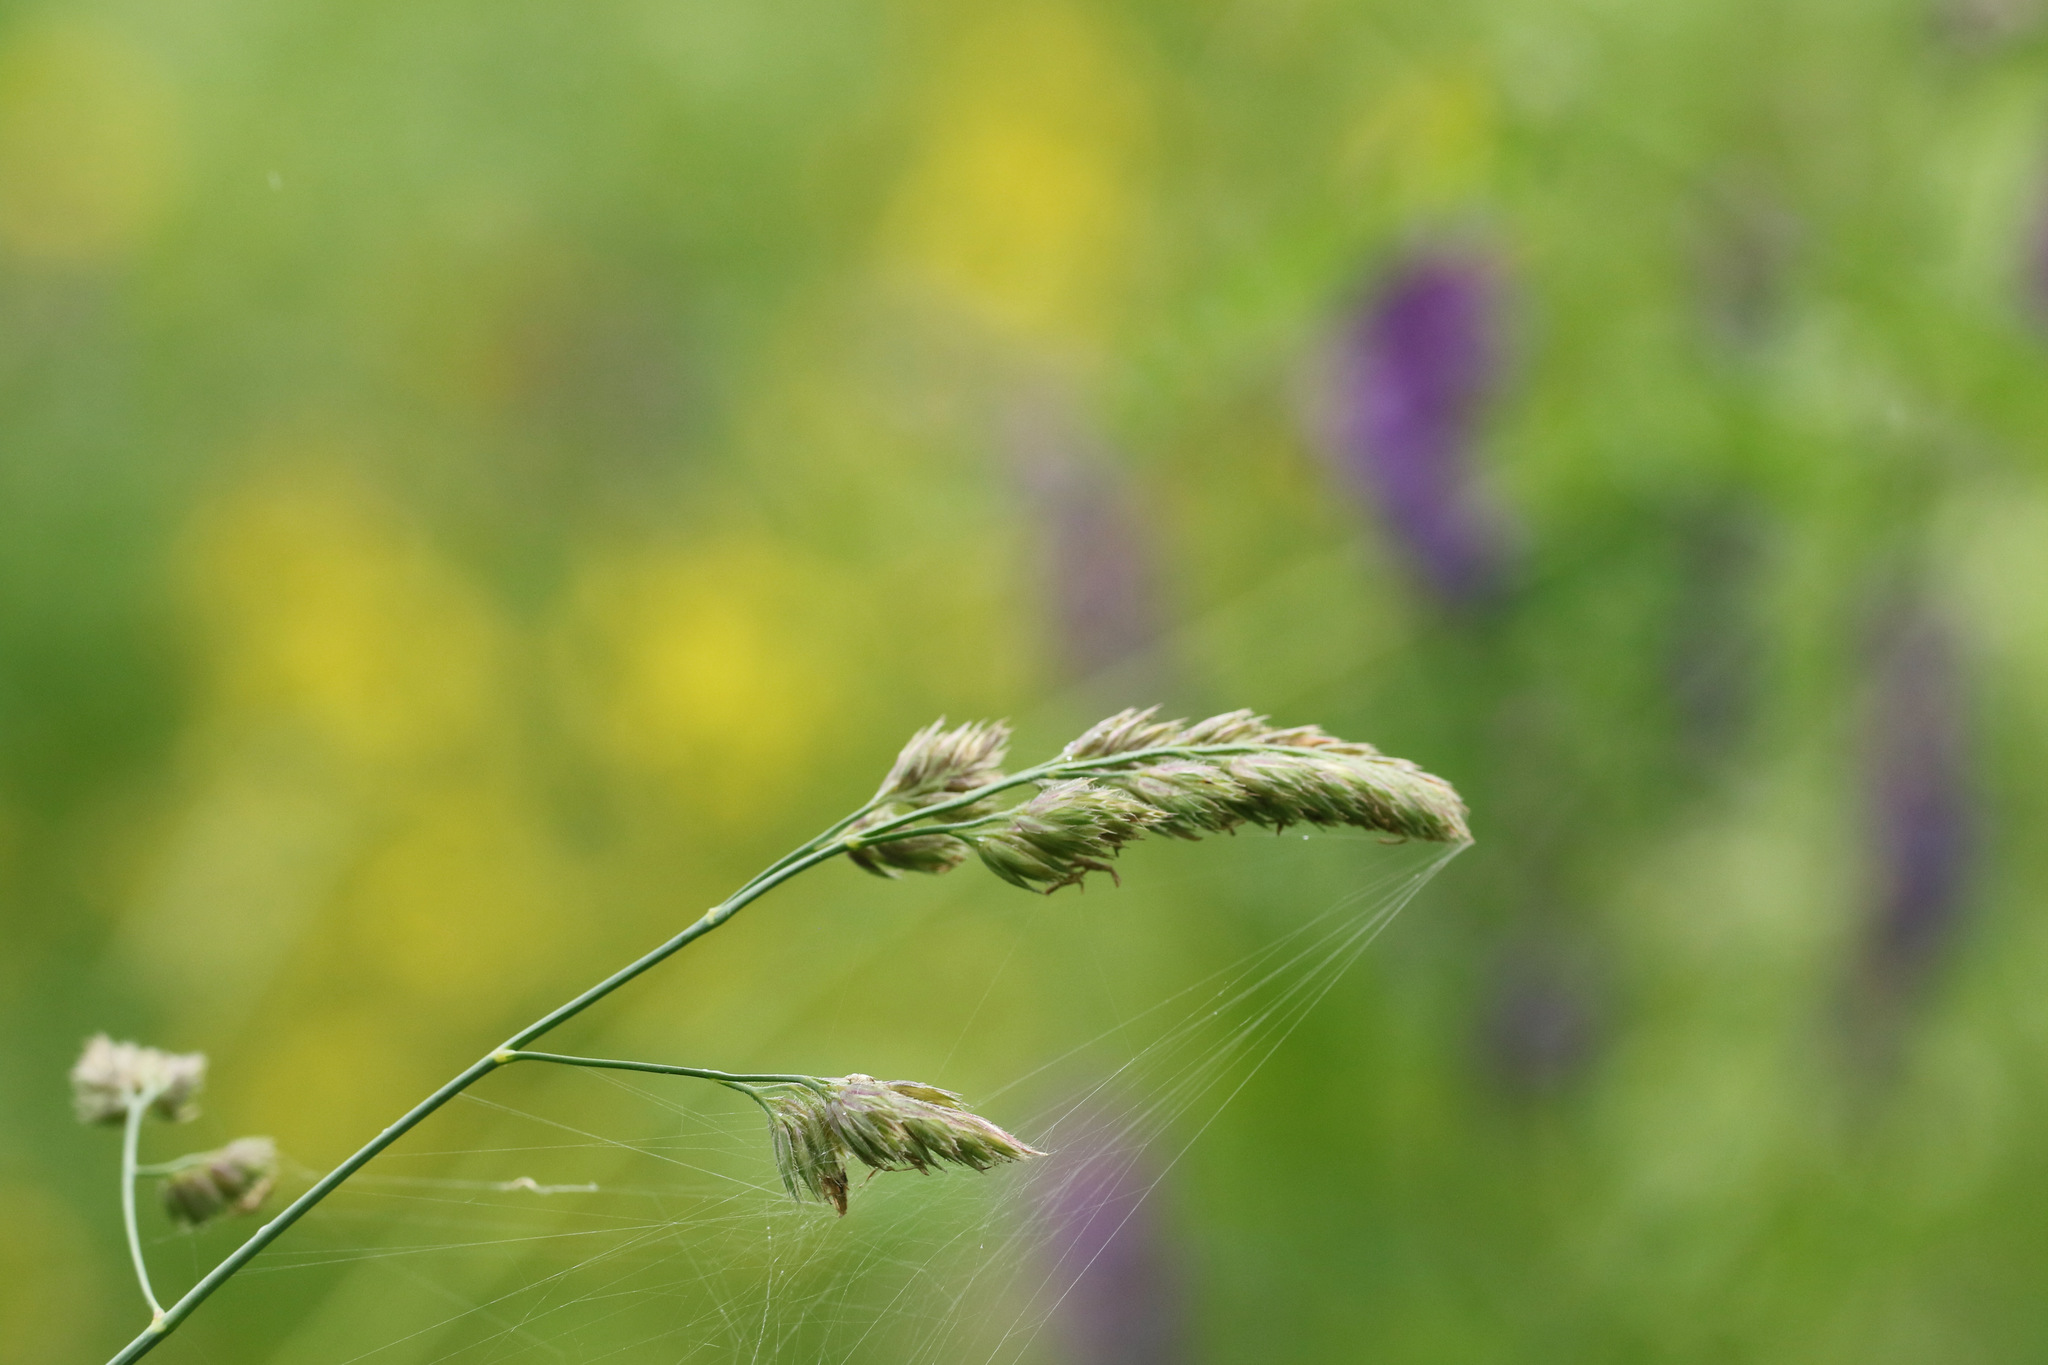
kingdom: Plantae
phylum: Tracheophyta
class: Liliopsida
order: Poales
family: Poaceae
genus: Dactylis
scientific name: Dactylis glomerata
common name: Orchardgrass
